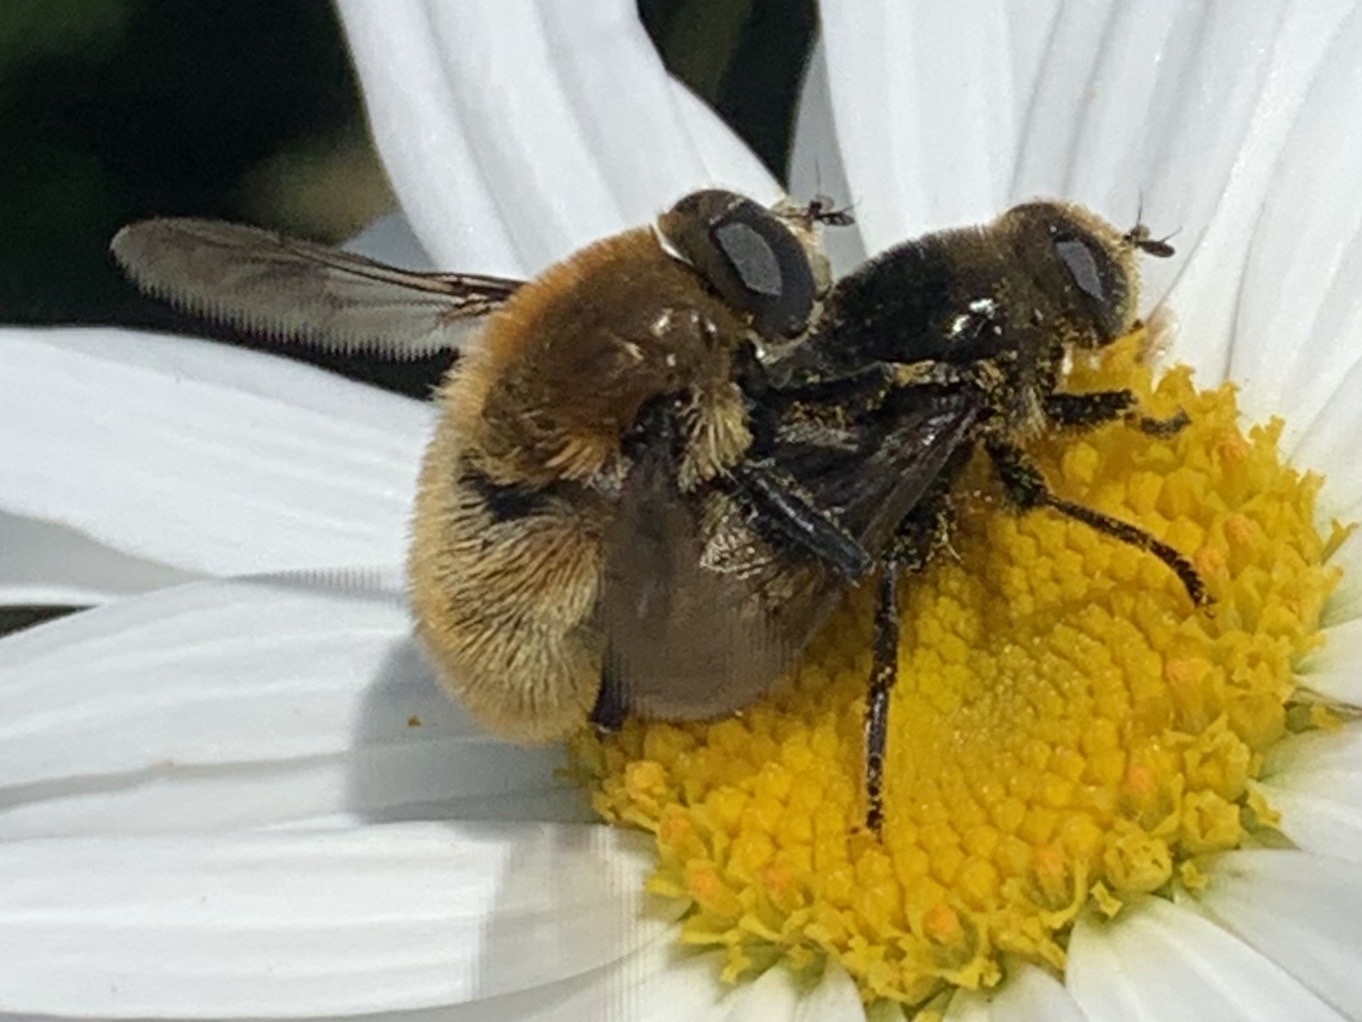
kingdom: Animalia
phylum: Arthropoda
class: Insecta
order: Diptera
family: Syrphidae
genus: Merodon
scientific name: Merodon equestris
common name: Greater bulb-fly
